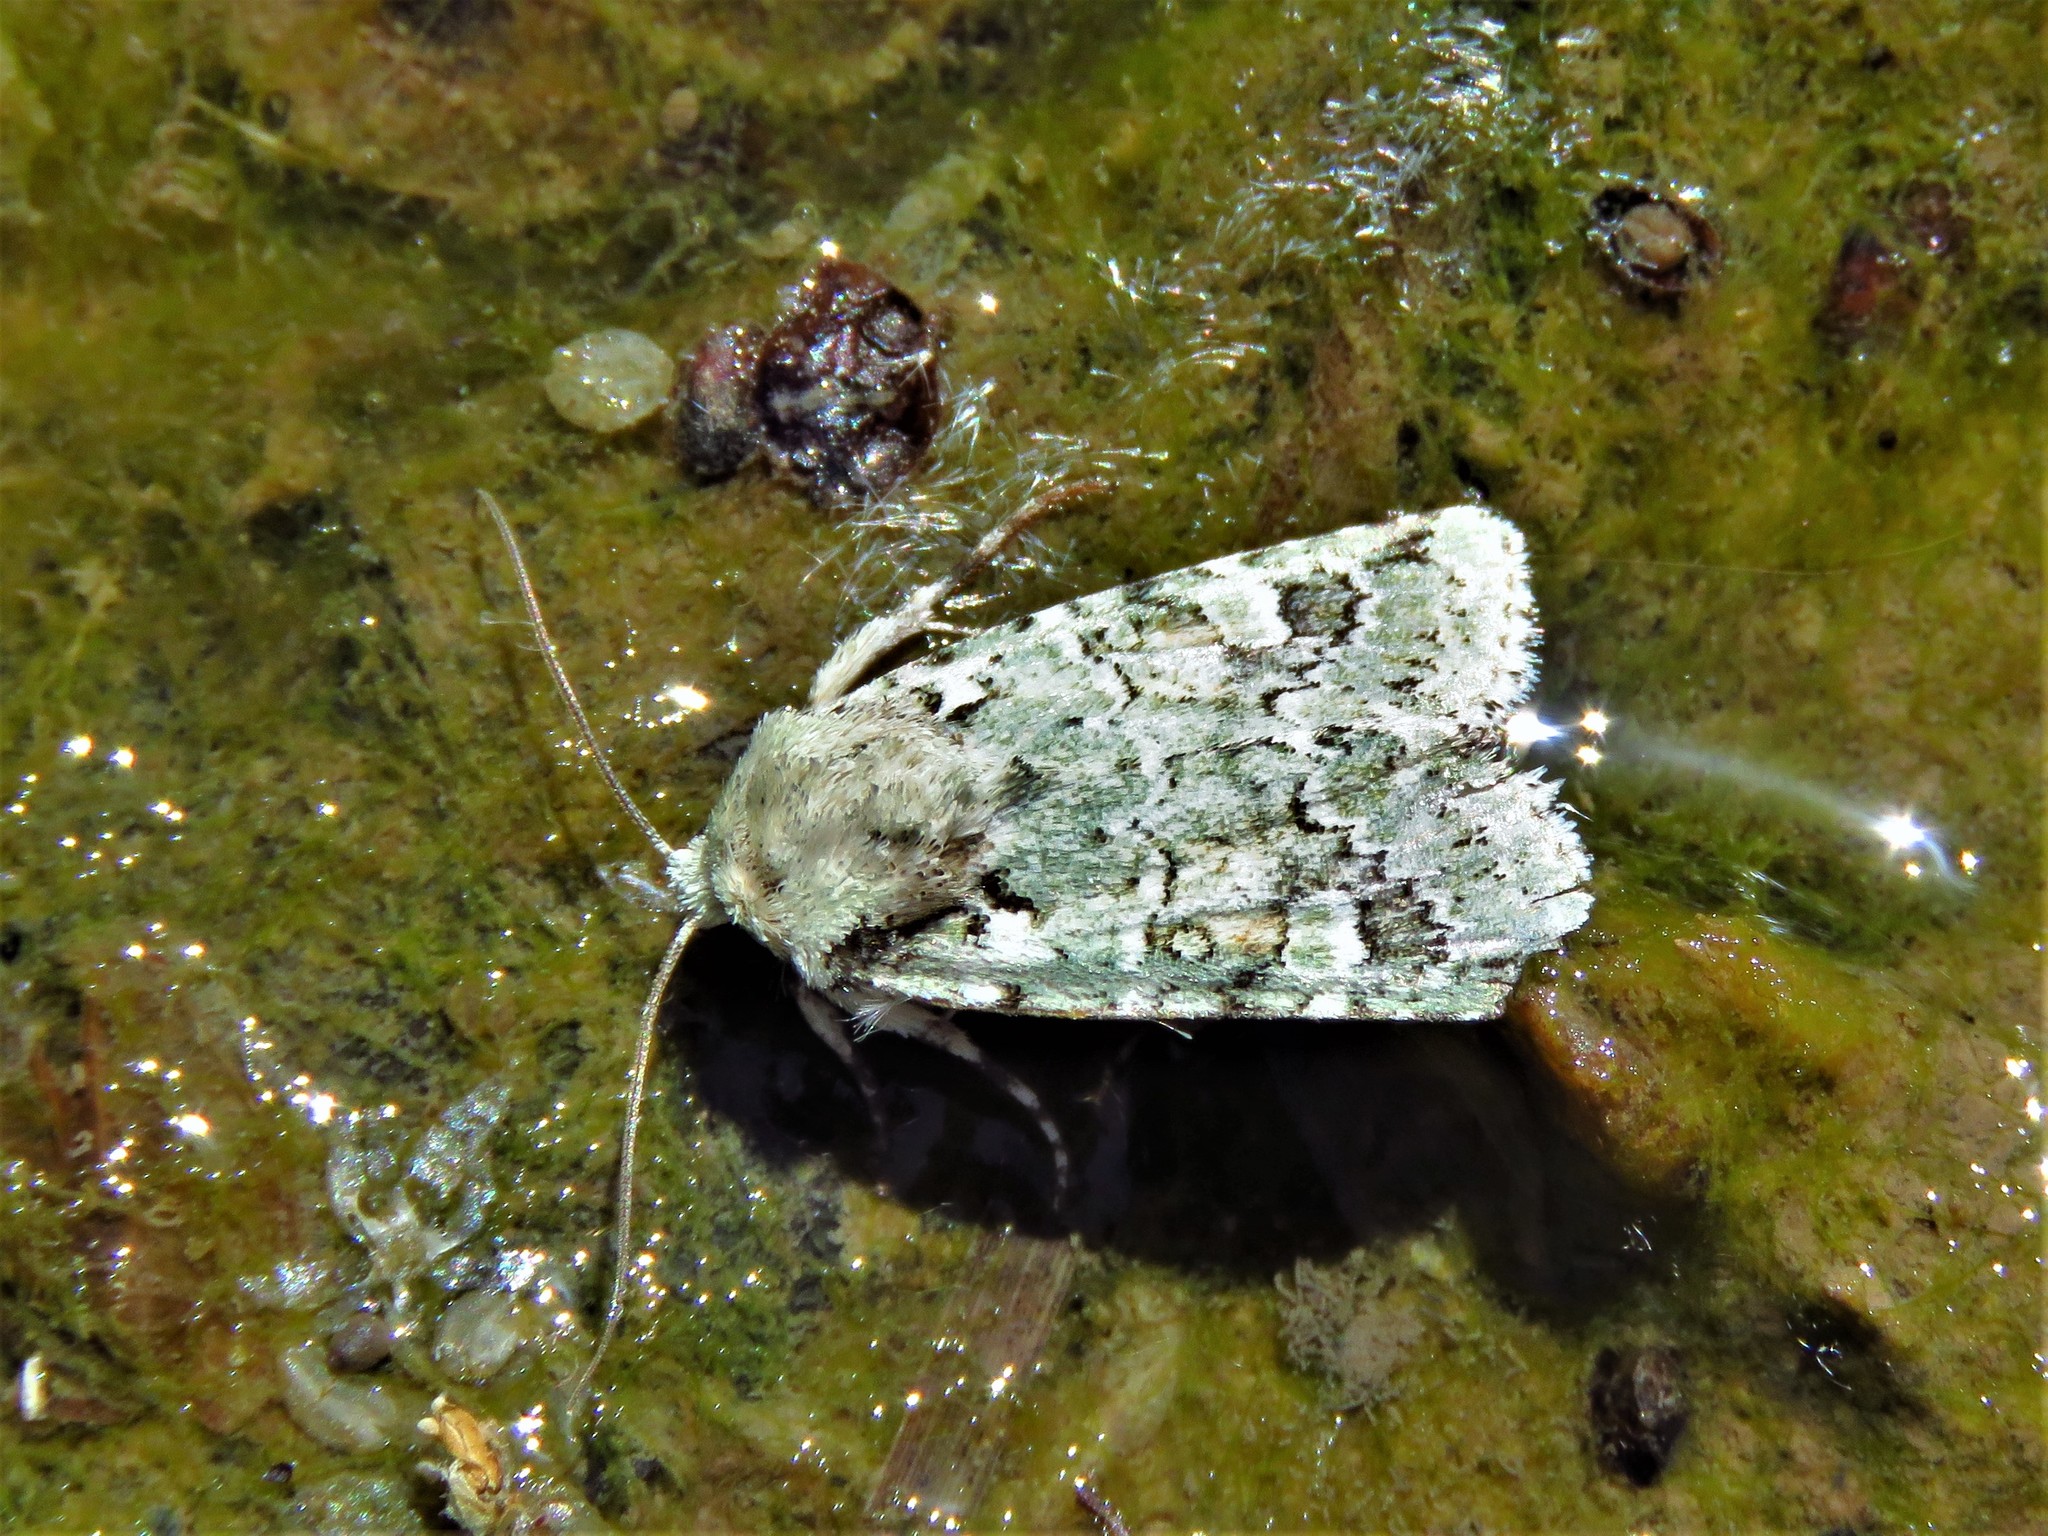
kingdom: Animalia
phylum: Arthropoda
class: Insecta
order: Lepidoptera
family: Noctuidae
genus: Lacinipolia
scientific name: Lacinipolia laudabilis
